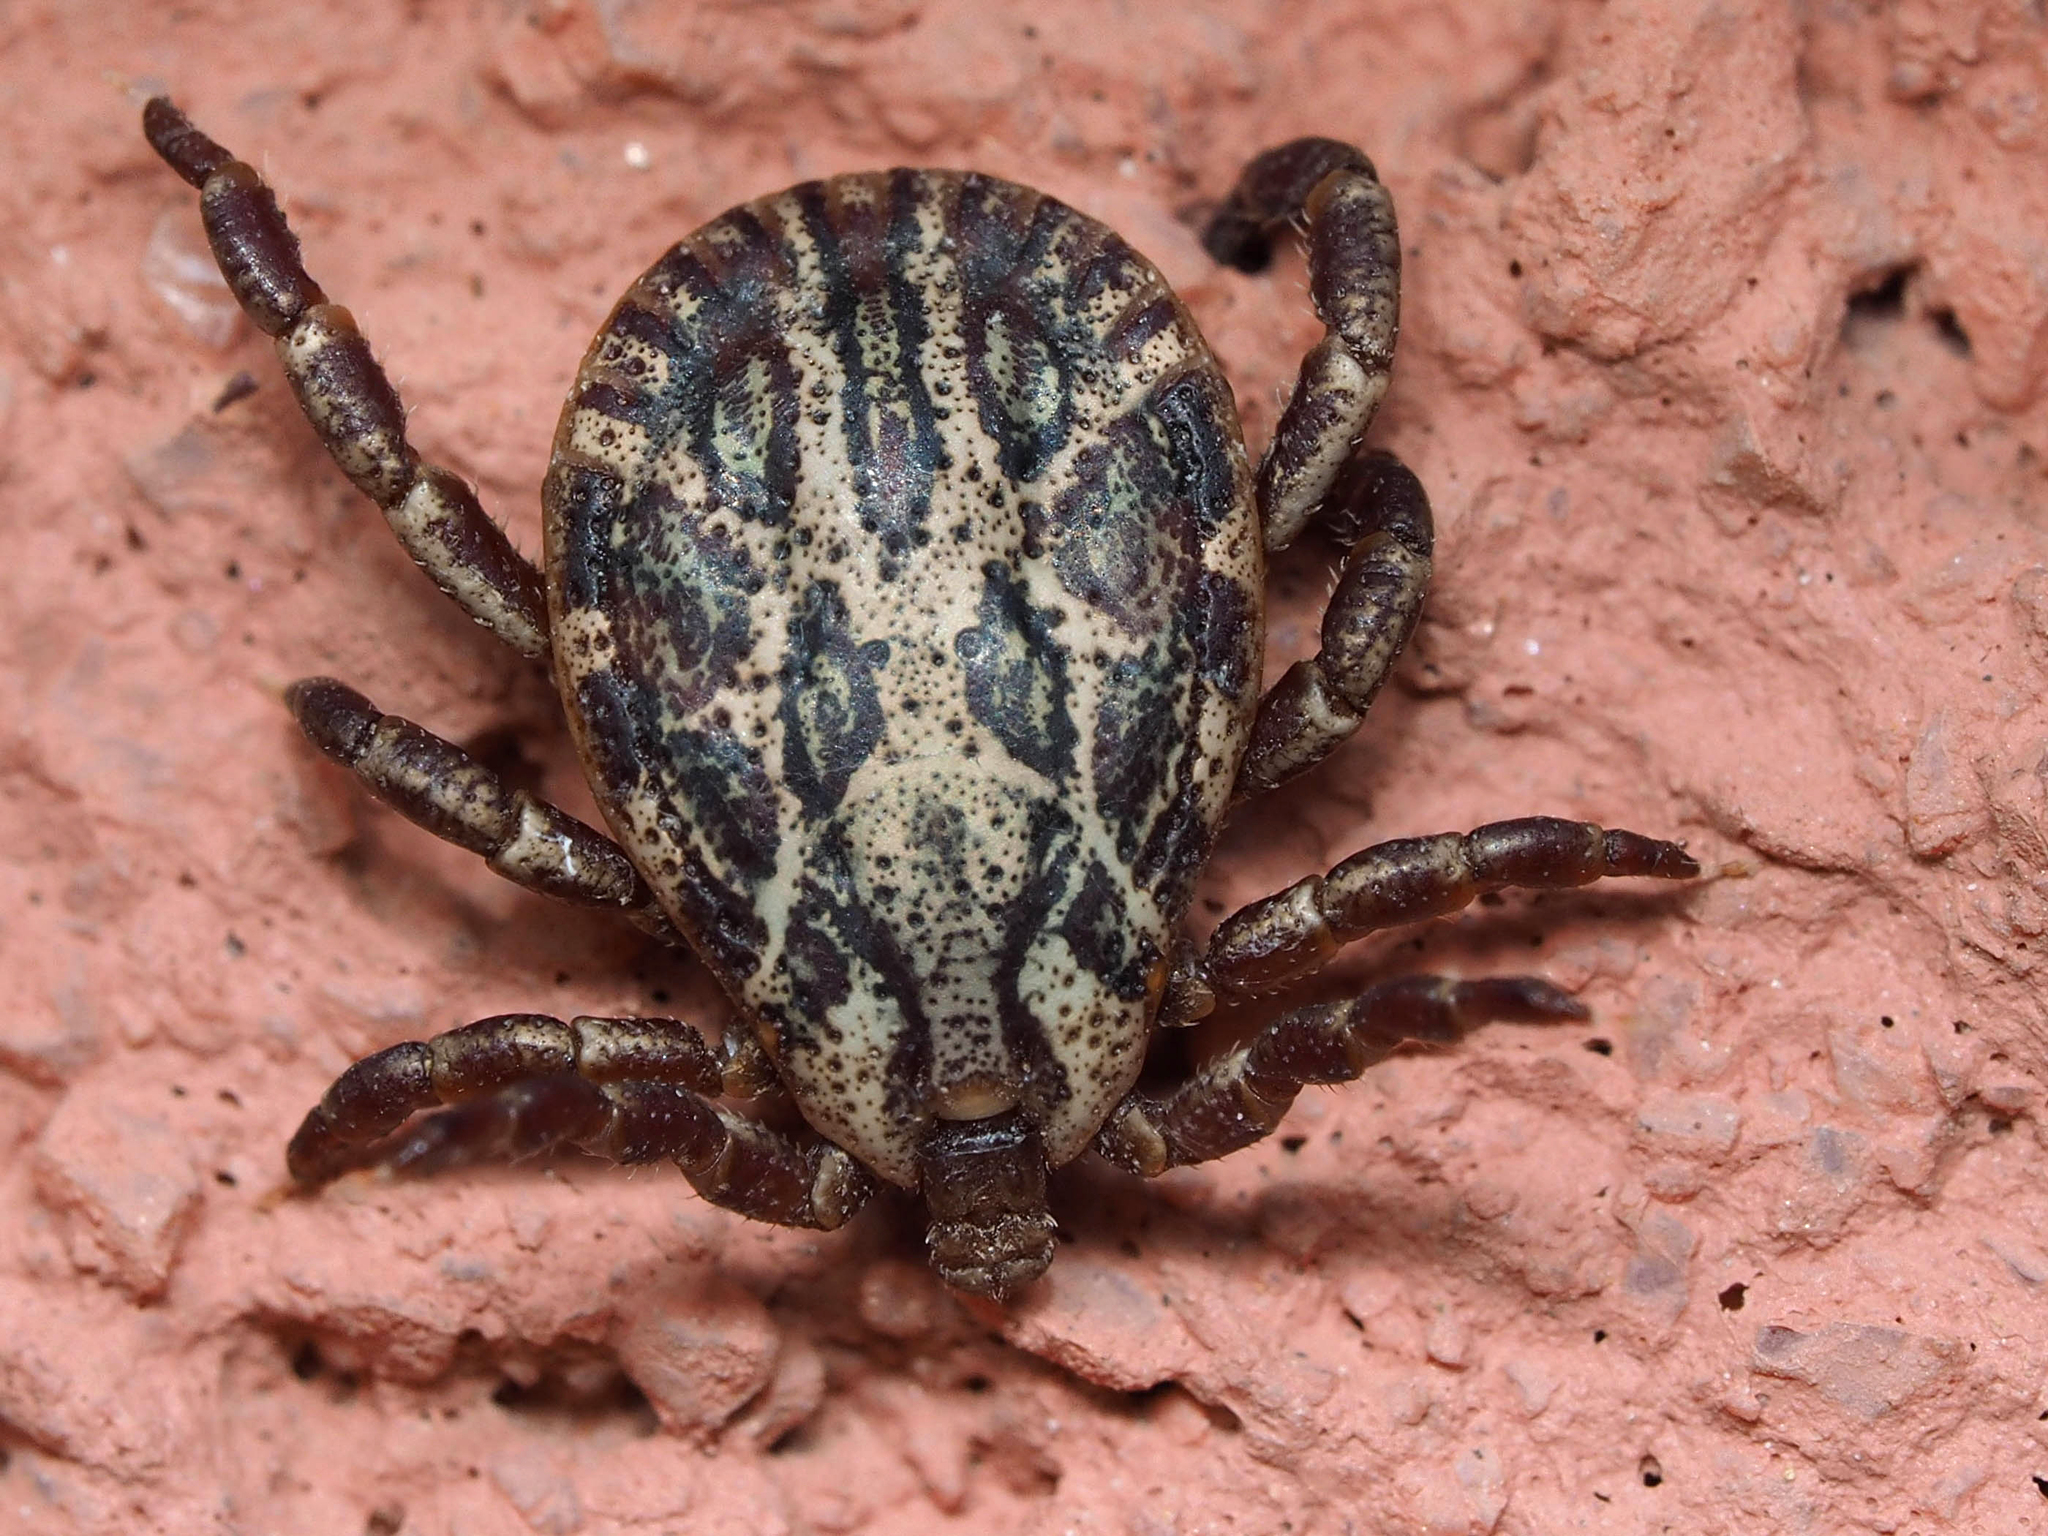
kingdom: Animalia
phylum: Arthropoda
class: Arachnida
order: Ixodida
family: Ixodidae
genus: Dermacentor
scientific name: Dermacentor marginatus
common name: Ornate sheep tick
